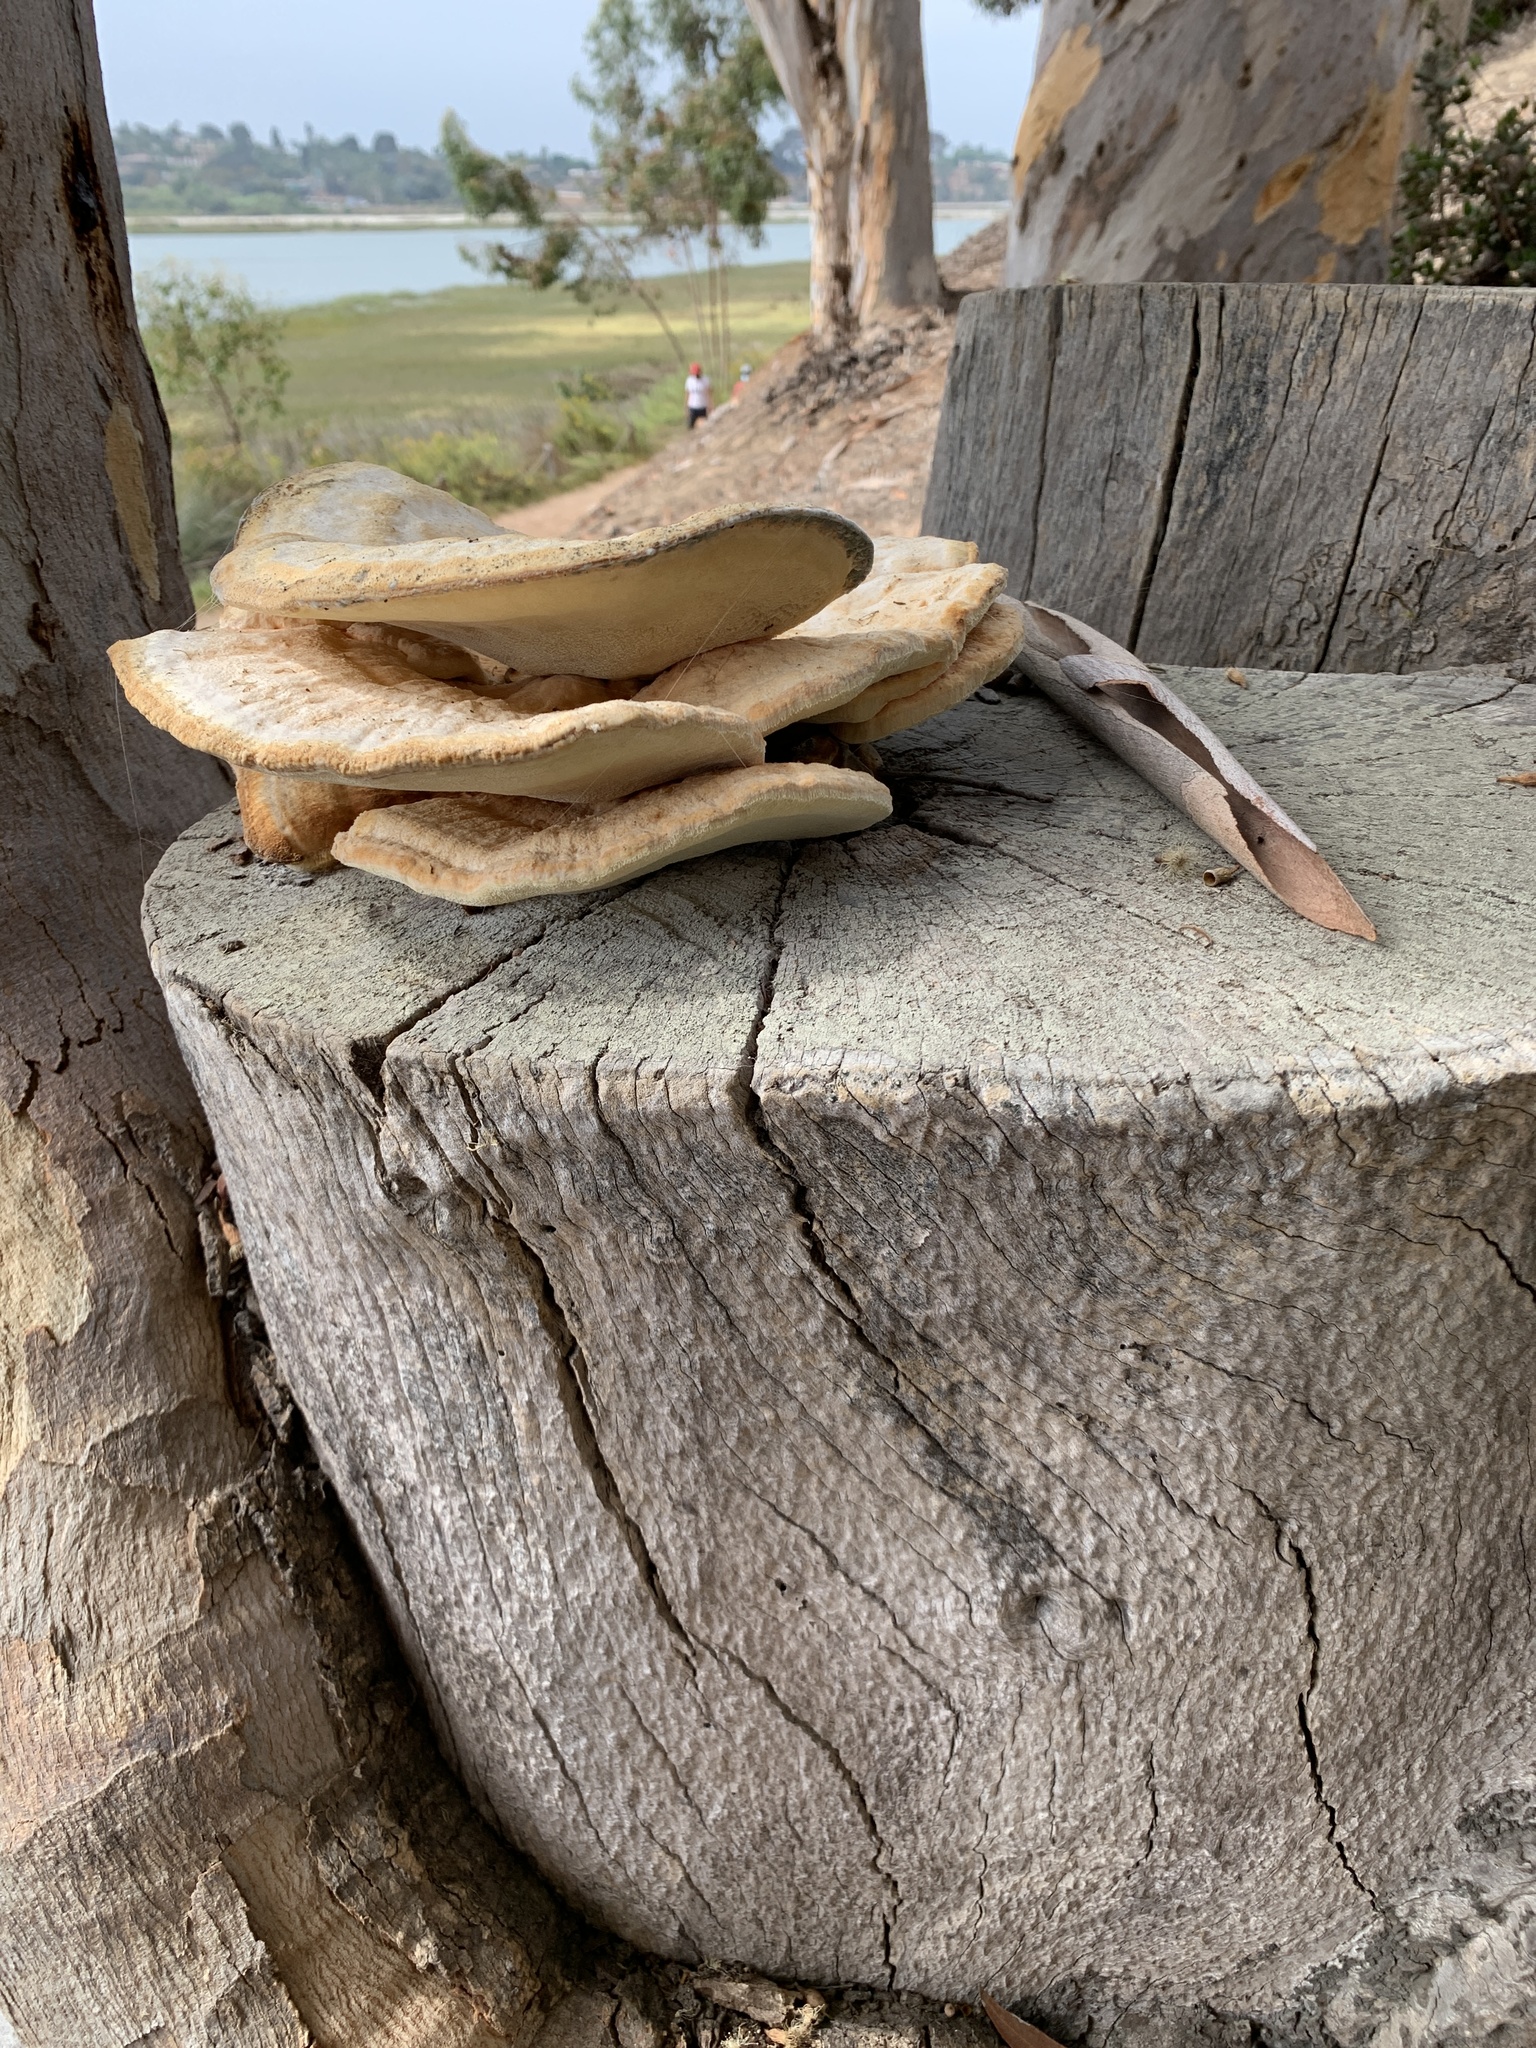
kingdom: Fungi
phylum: Basidiomycota
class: Agaricomycetes
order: Polyporales
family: Laetiporaceae
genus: Laetiporus
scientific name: Laetiporus gilbertsonii
